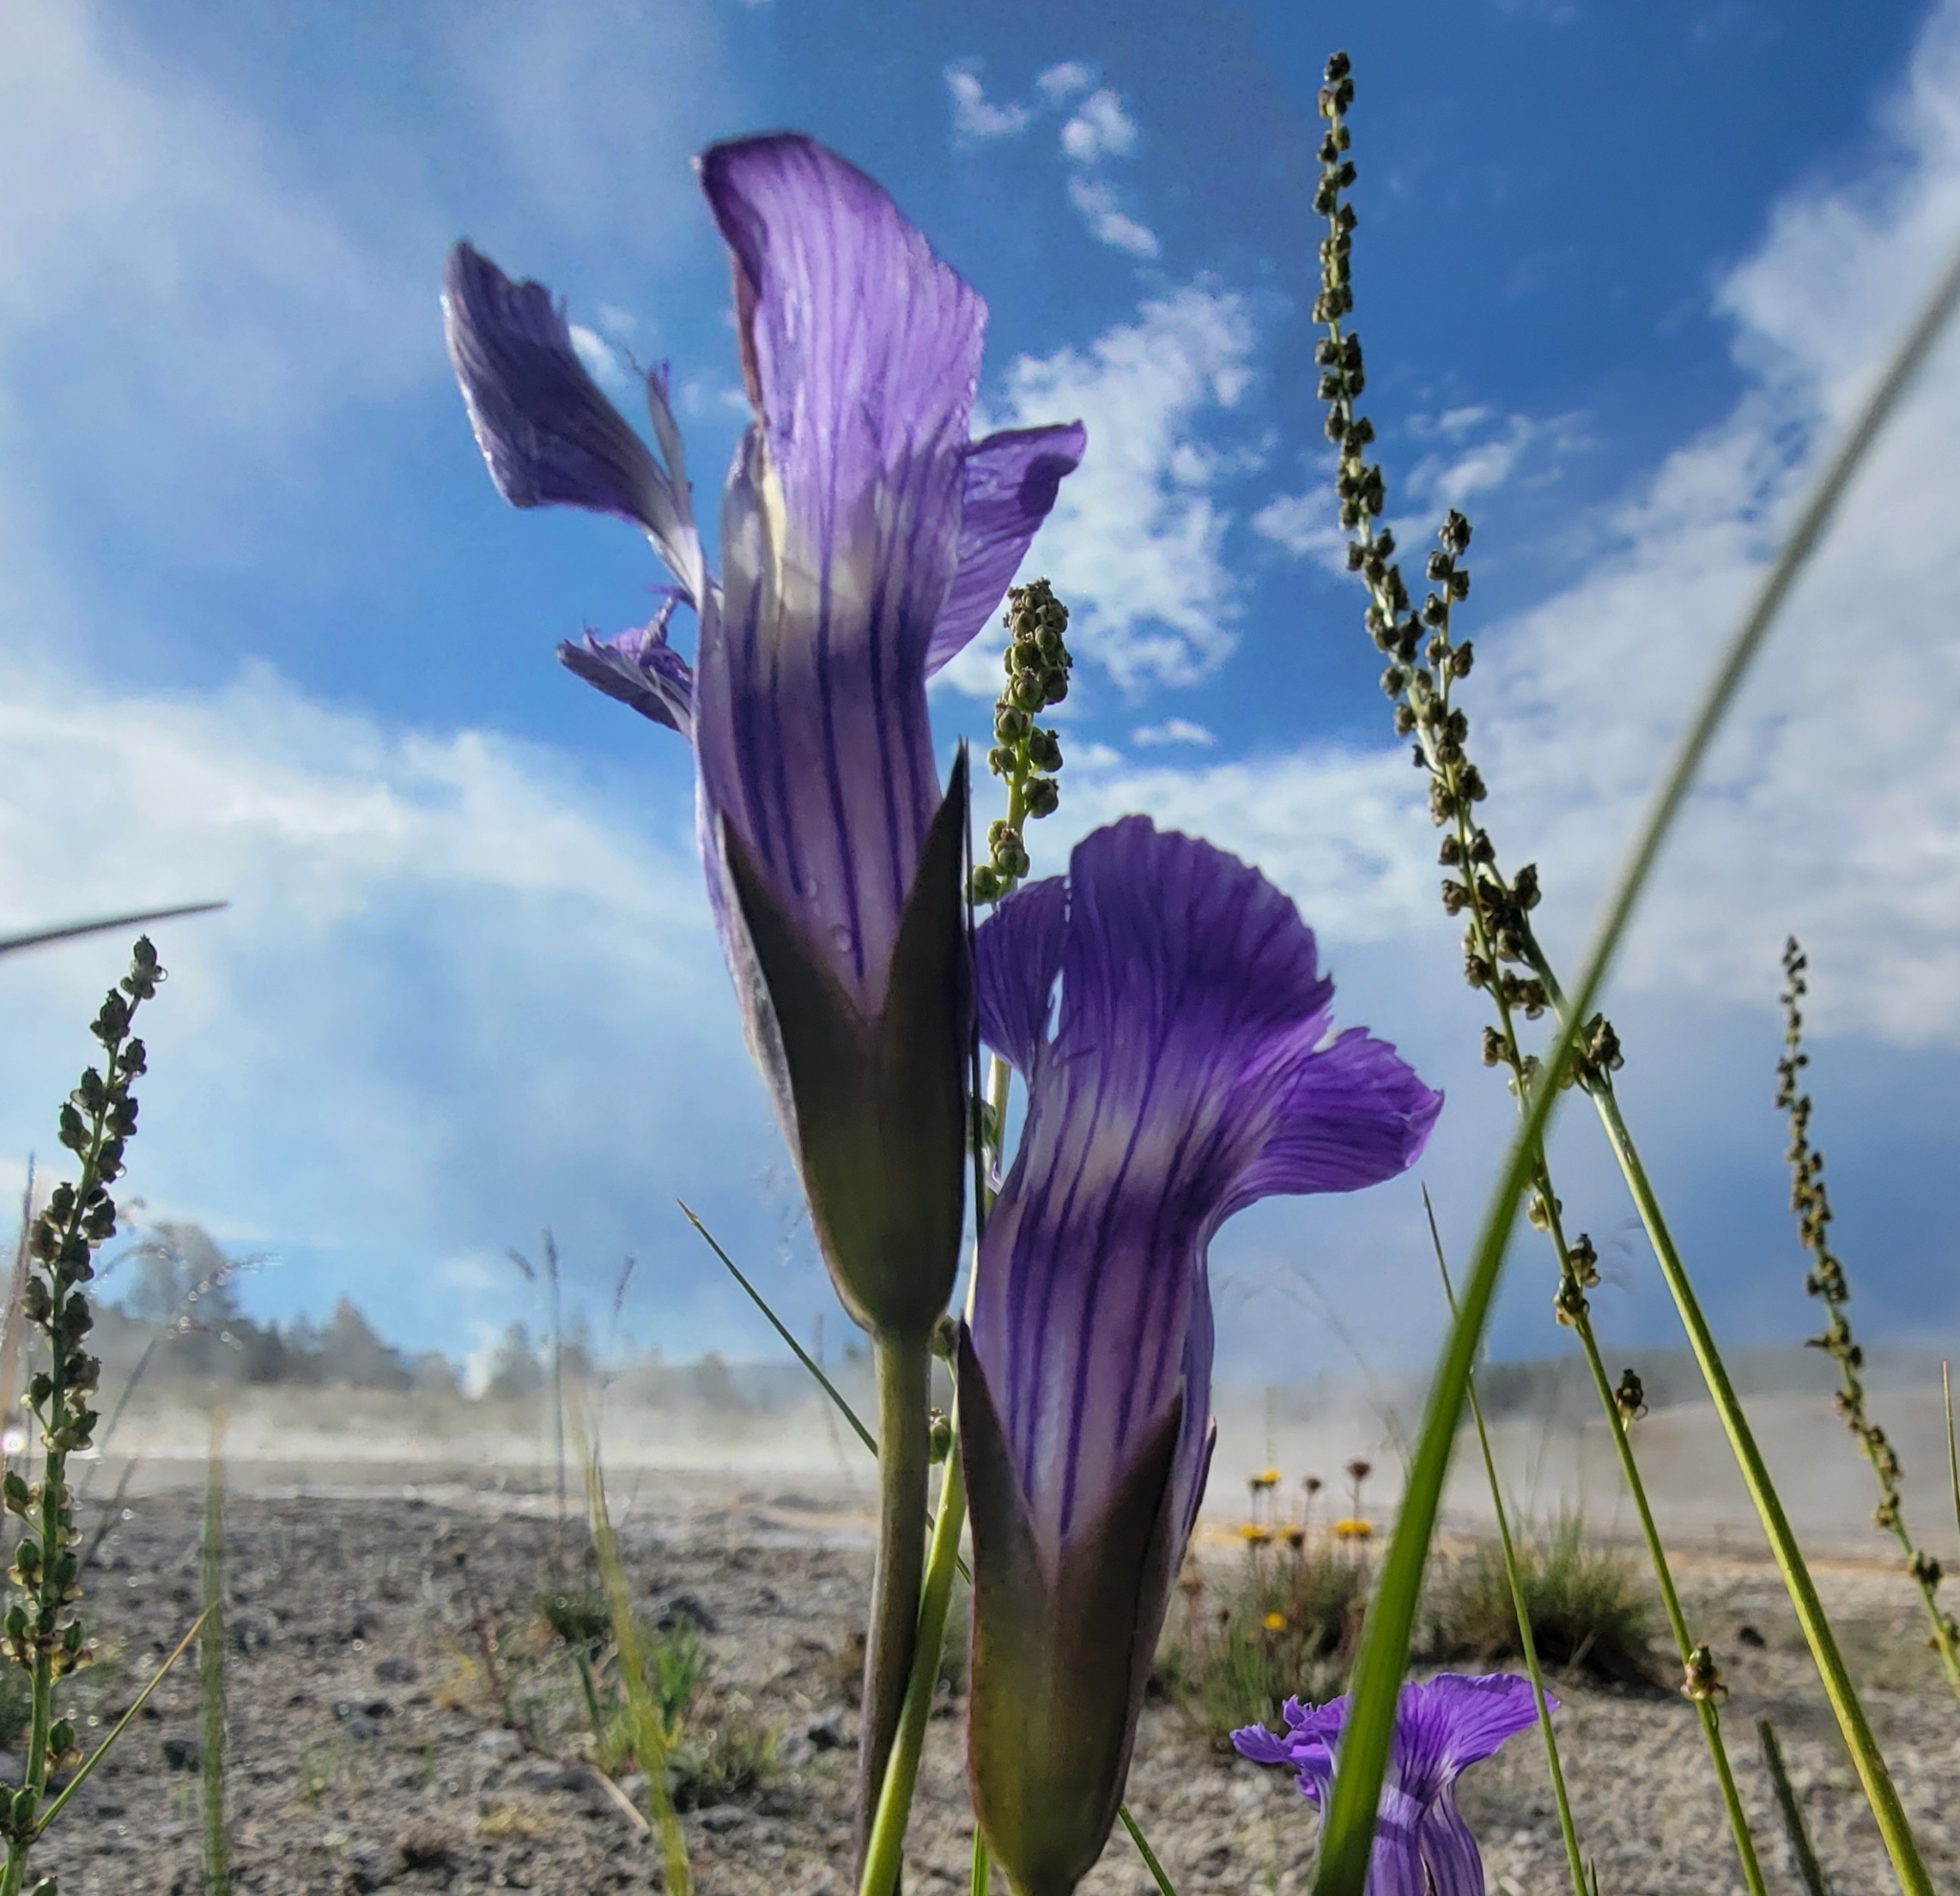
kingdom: Plantae
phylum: Tracheophyta
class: Magnoliopsida
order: Gentianales
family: Gentianaceae
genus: Gentianopsis
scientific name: Gentianopsis thermalis
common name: Rocky mountain fringed-gentian
